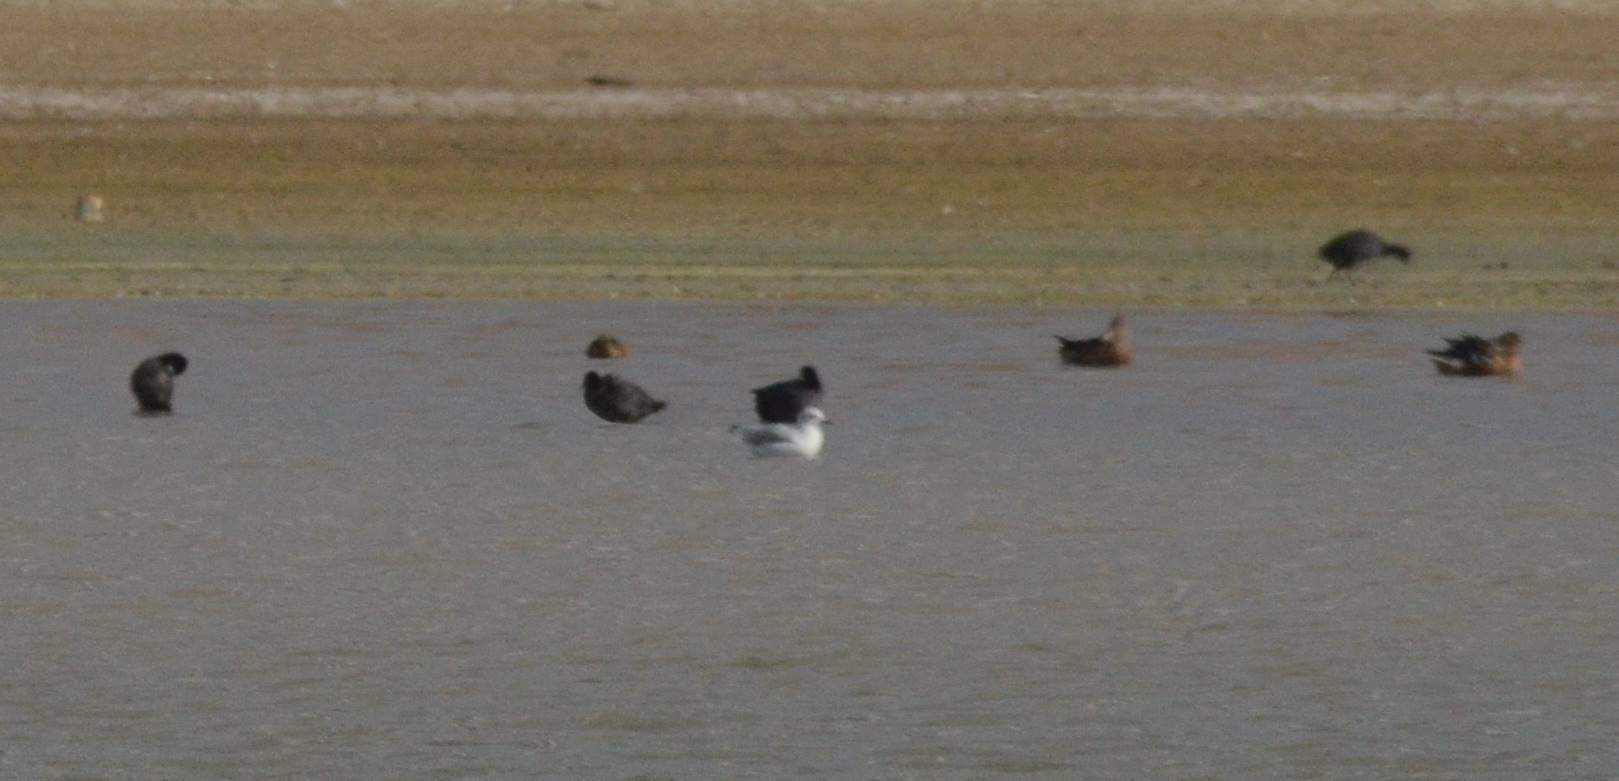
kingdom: Animalia
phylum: Chordata
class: Aves
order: Charadriiformes
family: Laridae
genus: Chroicocephalus
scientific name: Chroicocephalus ridibundus
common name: Black-headed gull
